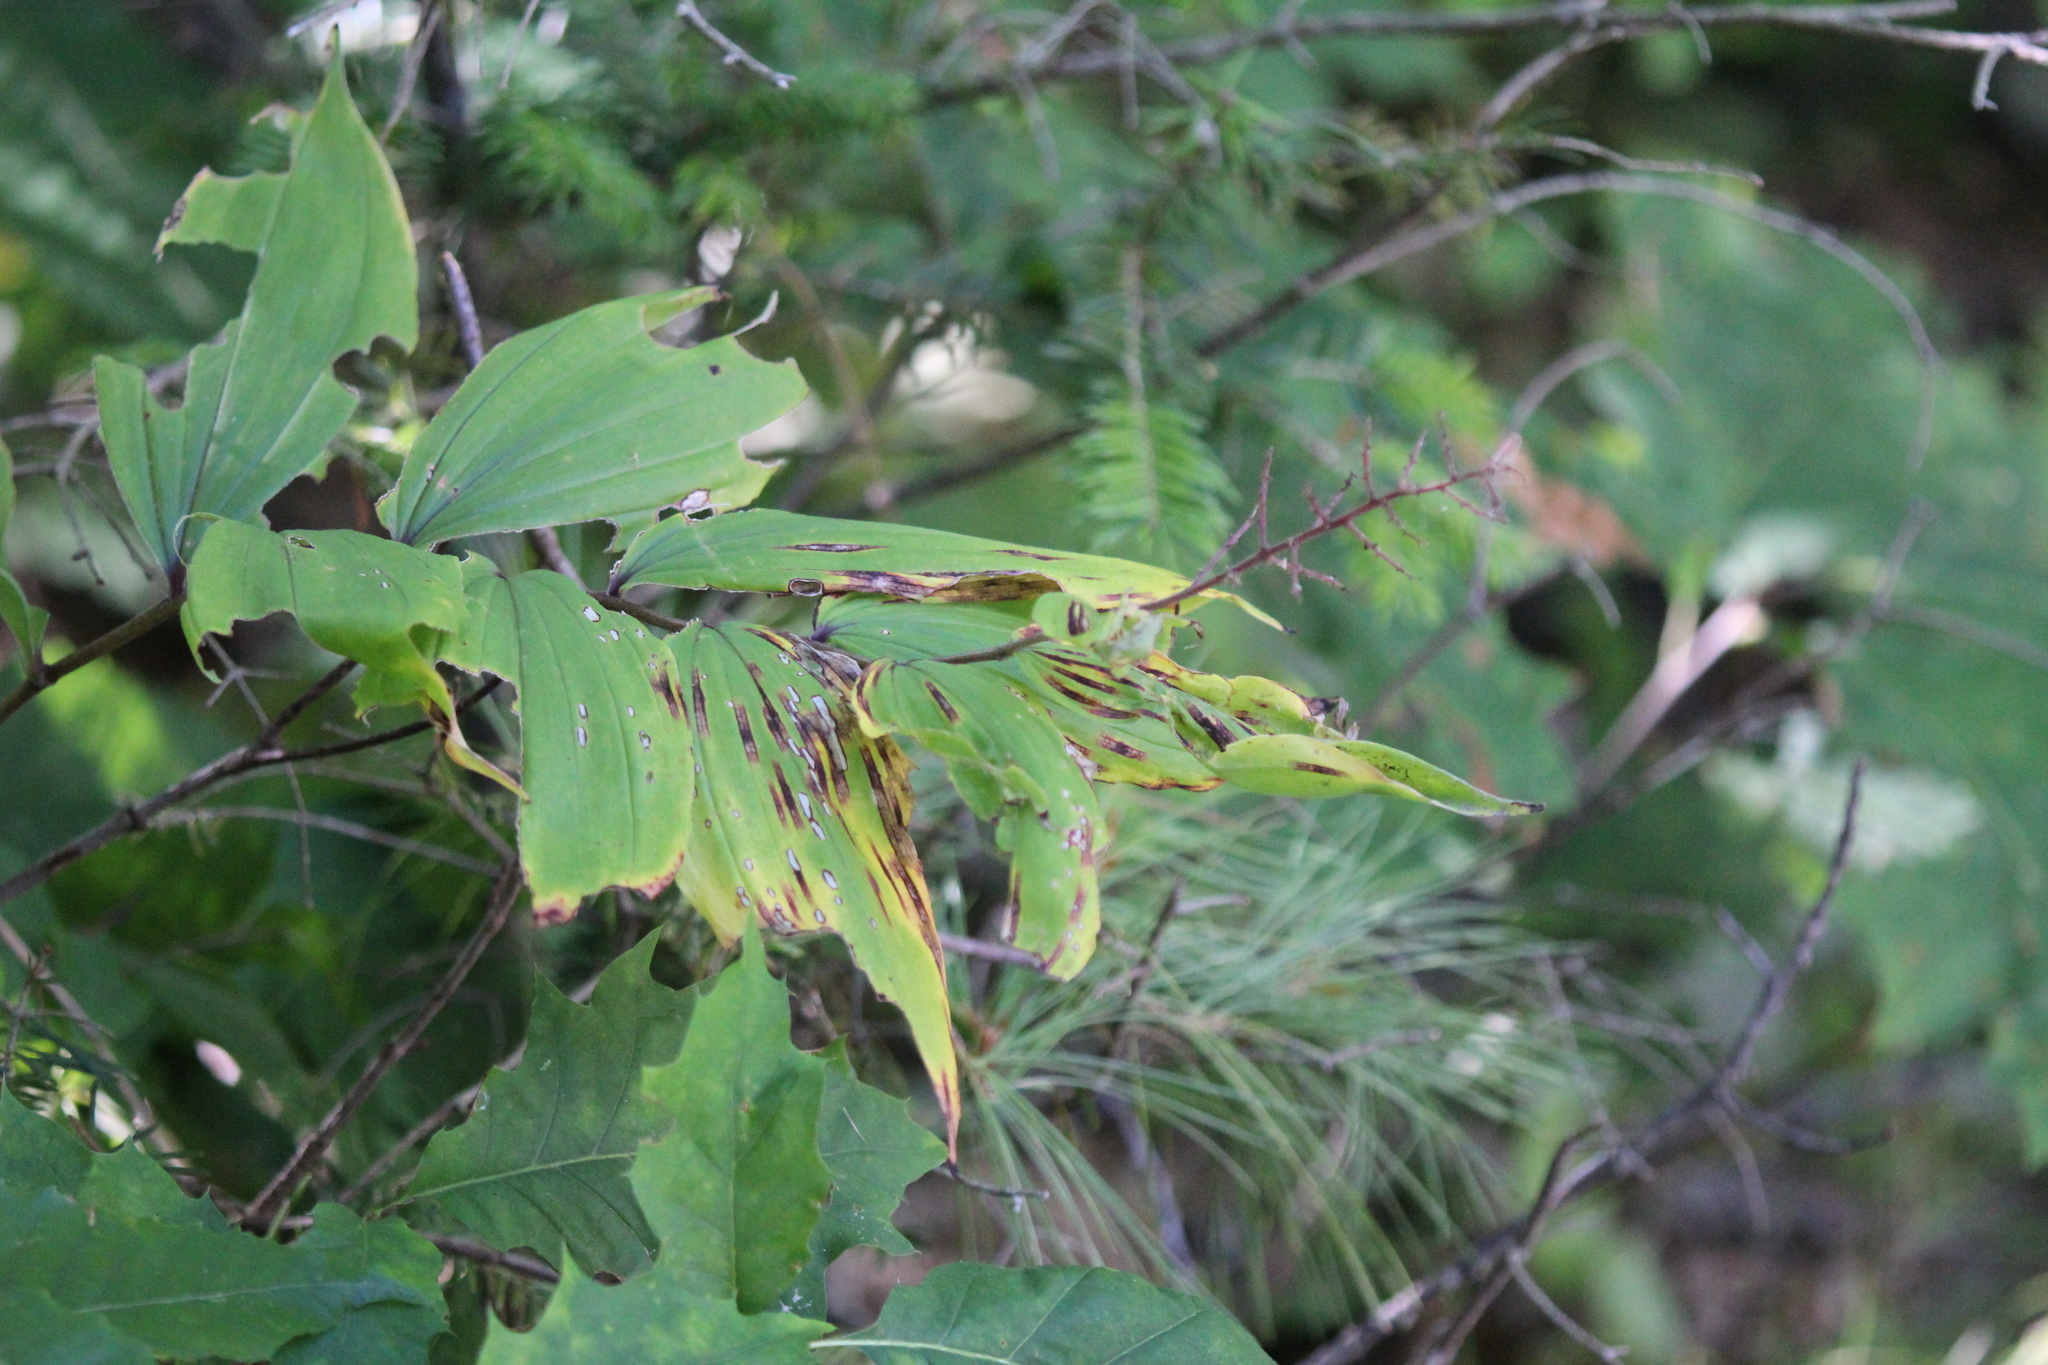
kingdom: Plantae
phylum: Tracheophyta
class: Liliopsida
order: Asparagales
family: Asparagaceae
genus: Maianthemum
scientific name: Maianthemum racemosum
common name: False spikenard
